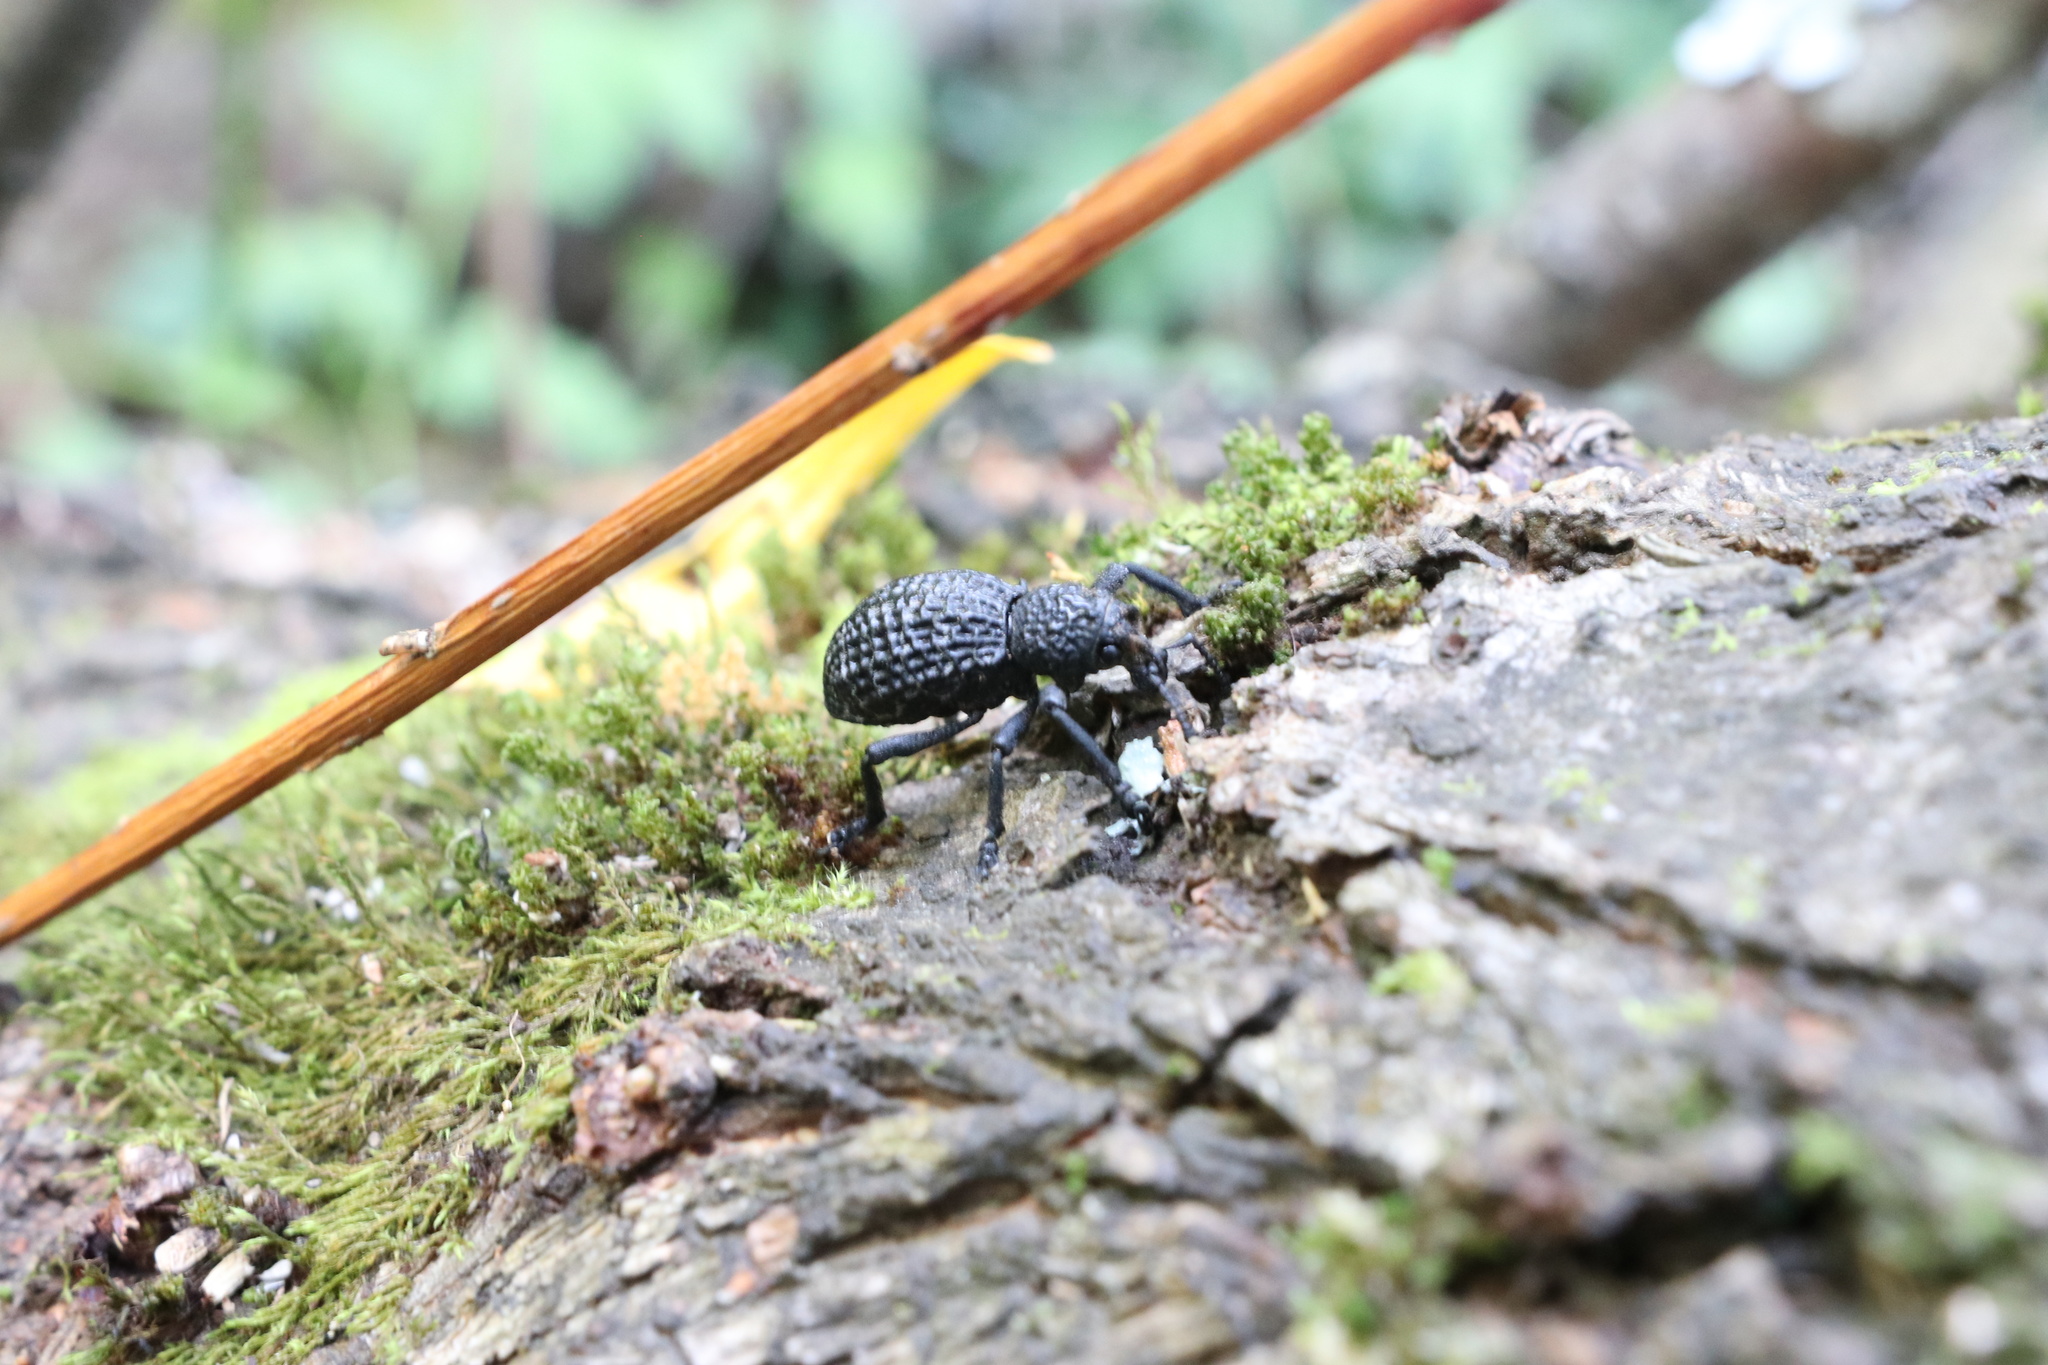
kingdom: Animalia
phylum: Arthropoda
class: Insecta
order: Coleoptera
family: Curculionidae
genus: Aegorhinus
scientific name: Aegorhinus superciliosus
